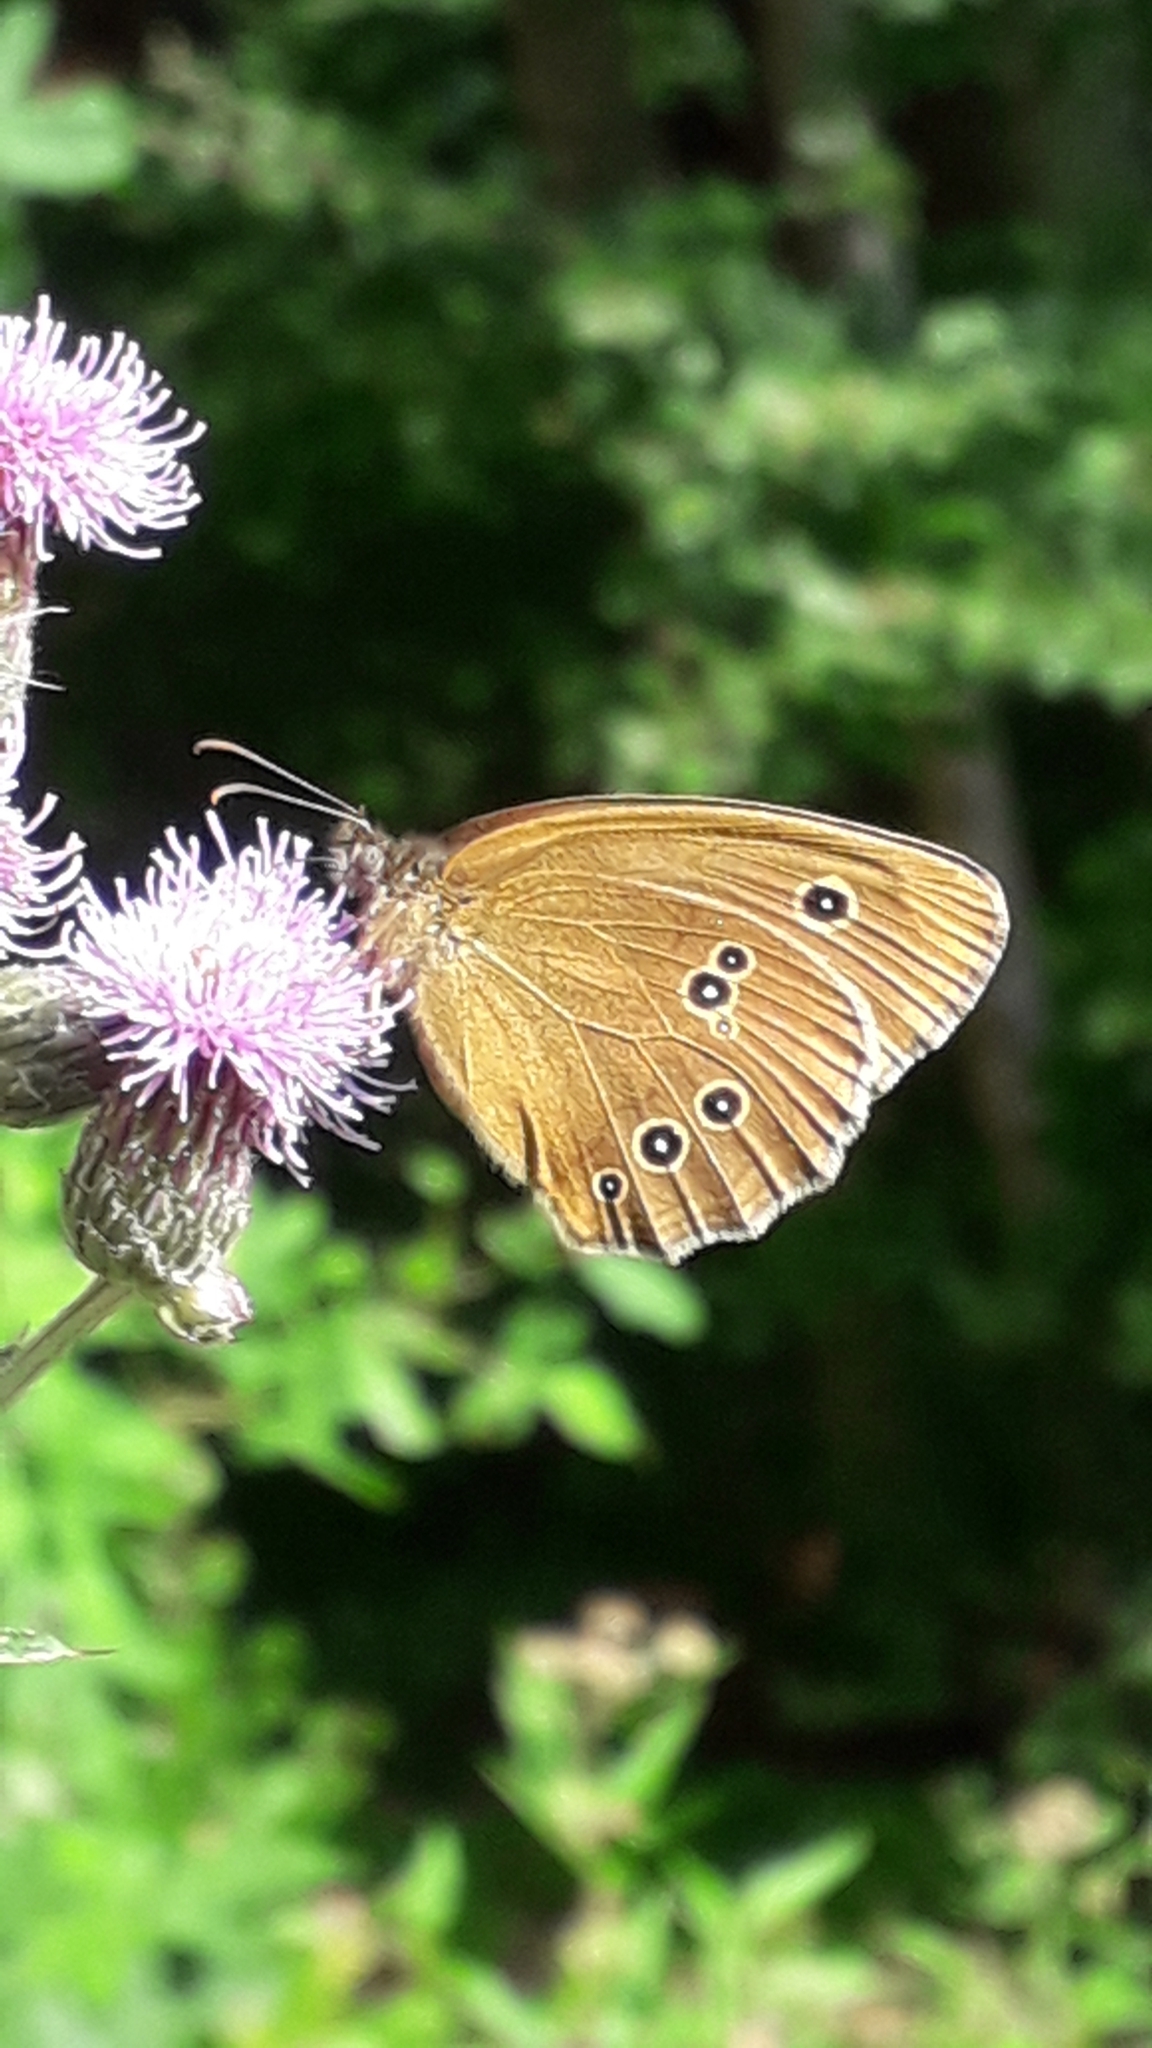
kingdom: Animalia
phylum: Arthropoda
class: Insecta
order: Lepidoptera
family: Nymphalidae
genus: Aphantopus
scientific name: Aphantopus hyperantus
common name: Ringlet
